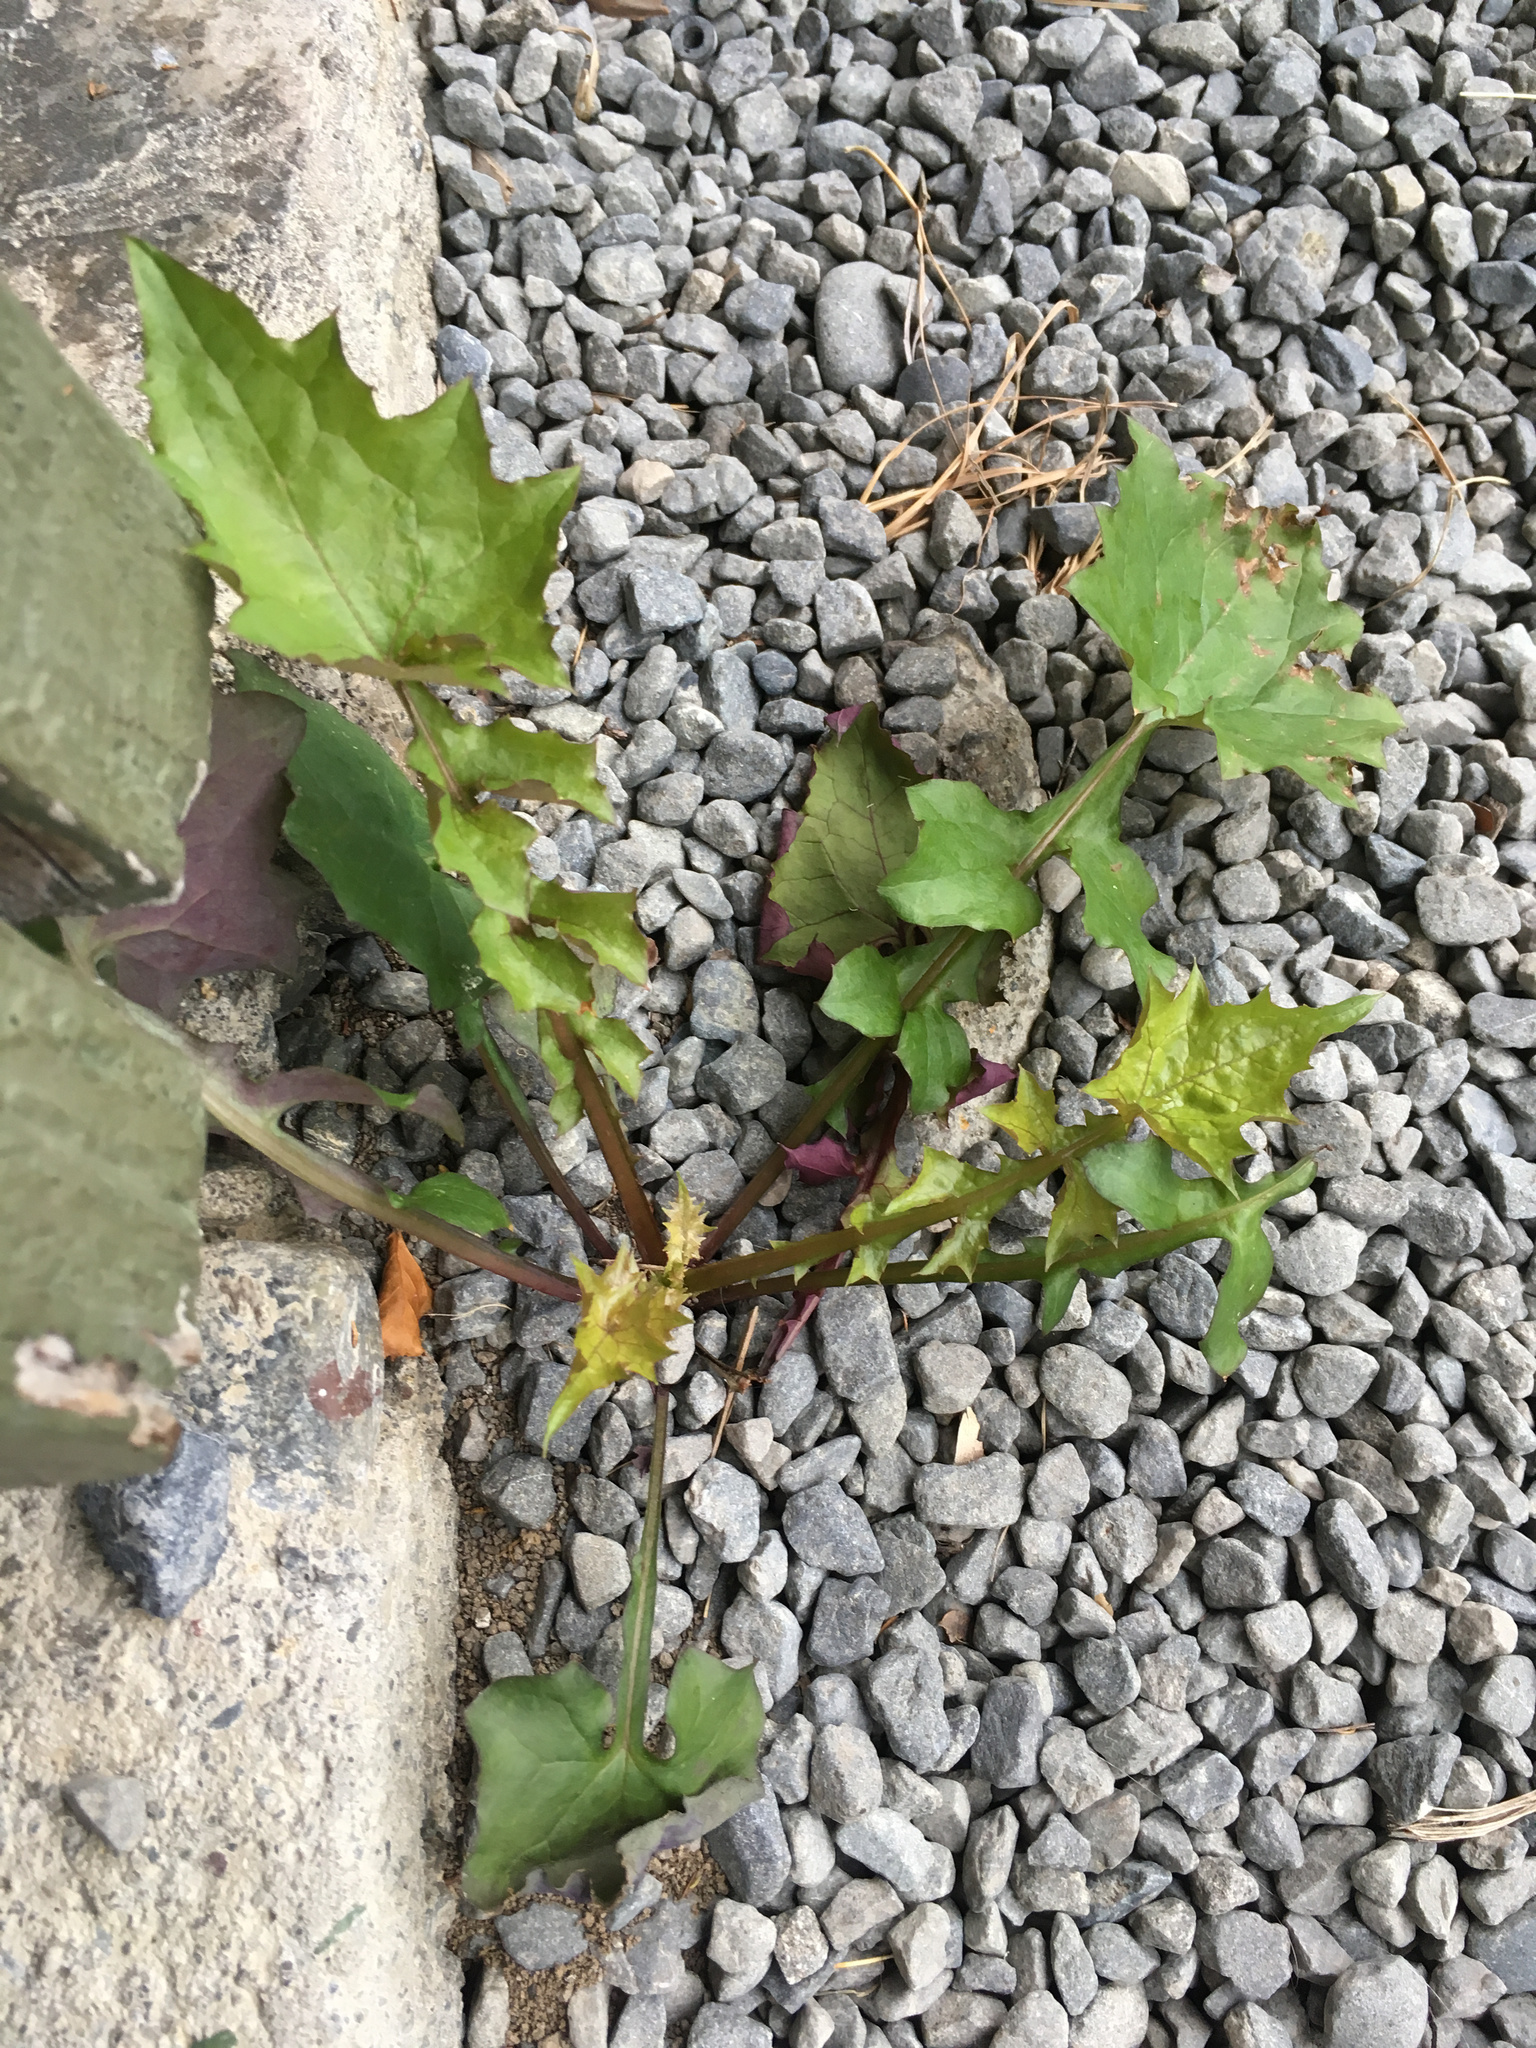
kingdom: Plantae
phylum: Tracheophyta
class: Magnoliopsida
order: Asterales
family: Asteraceae
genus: Mycelis
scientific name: Mycelis muralis
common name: Wall lettuce
